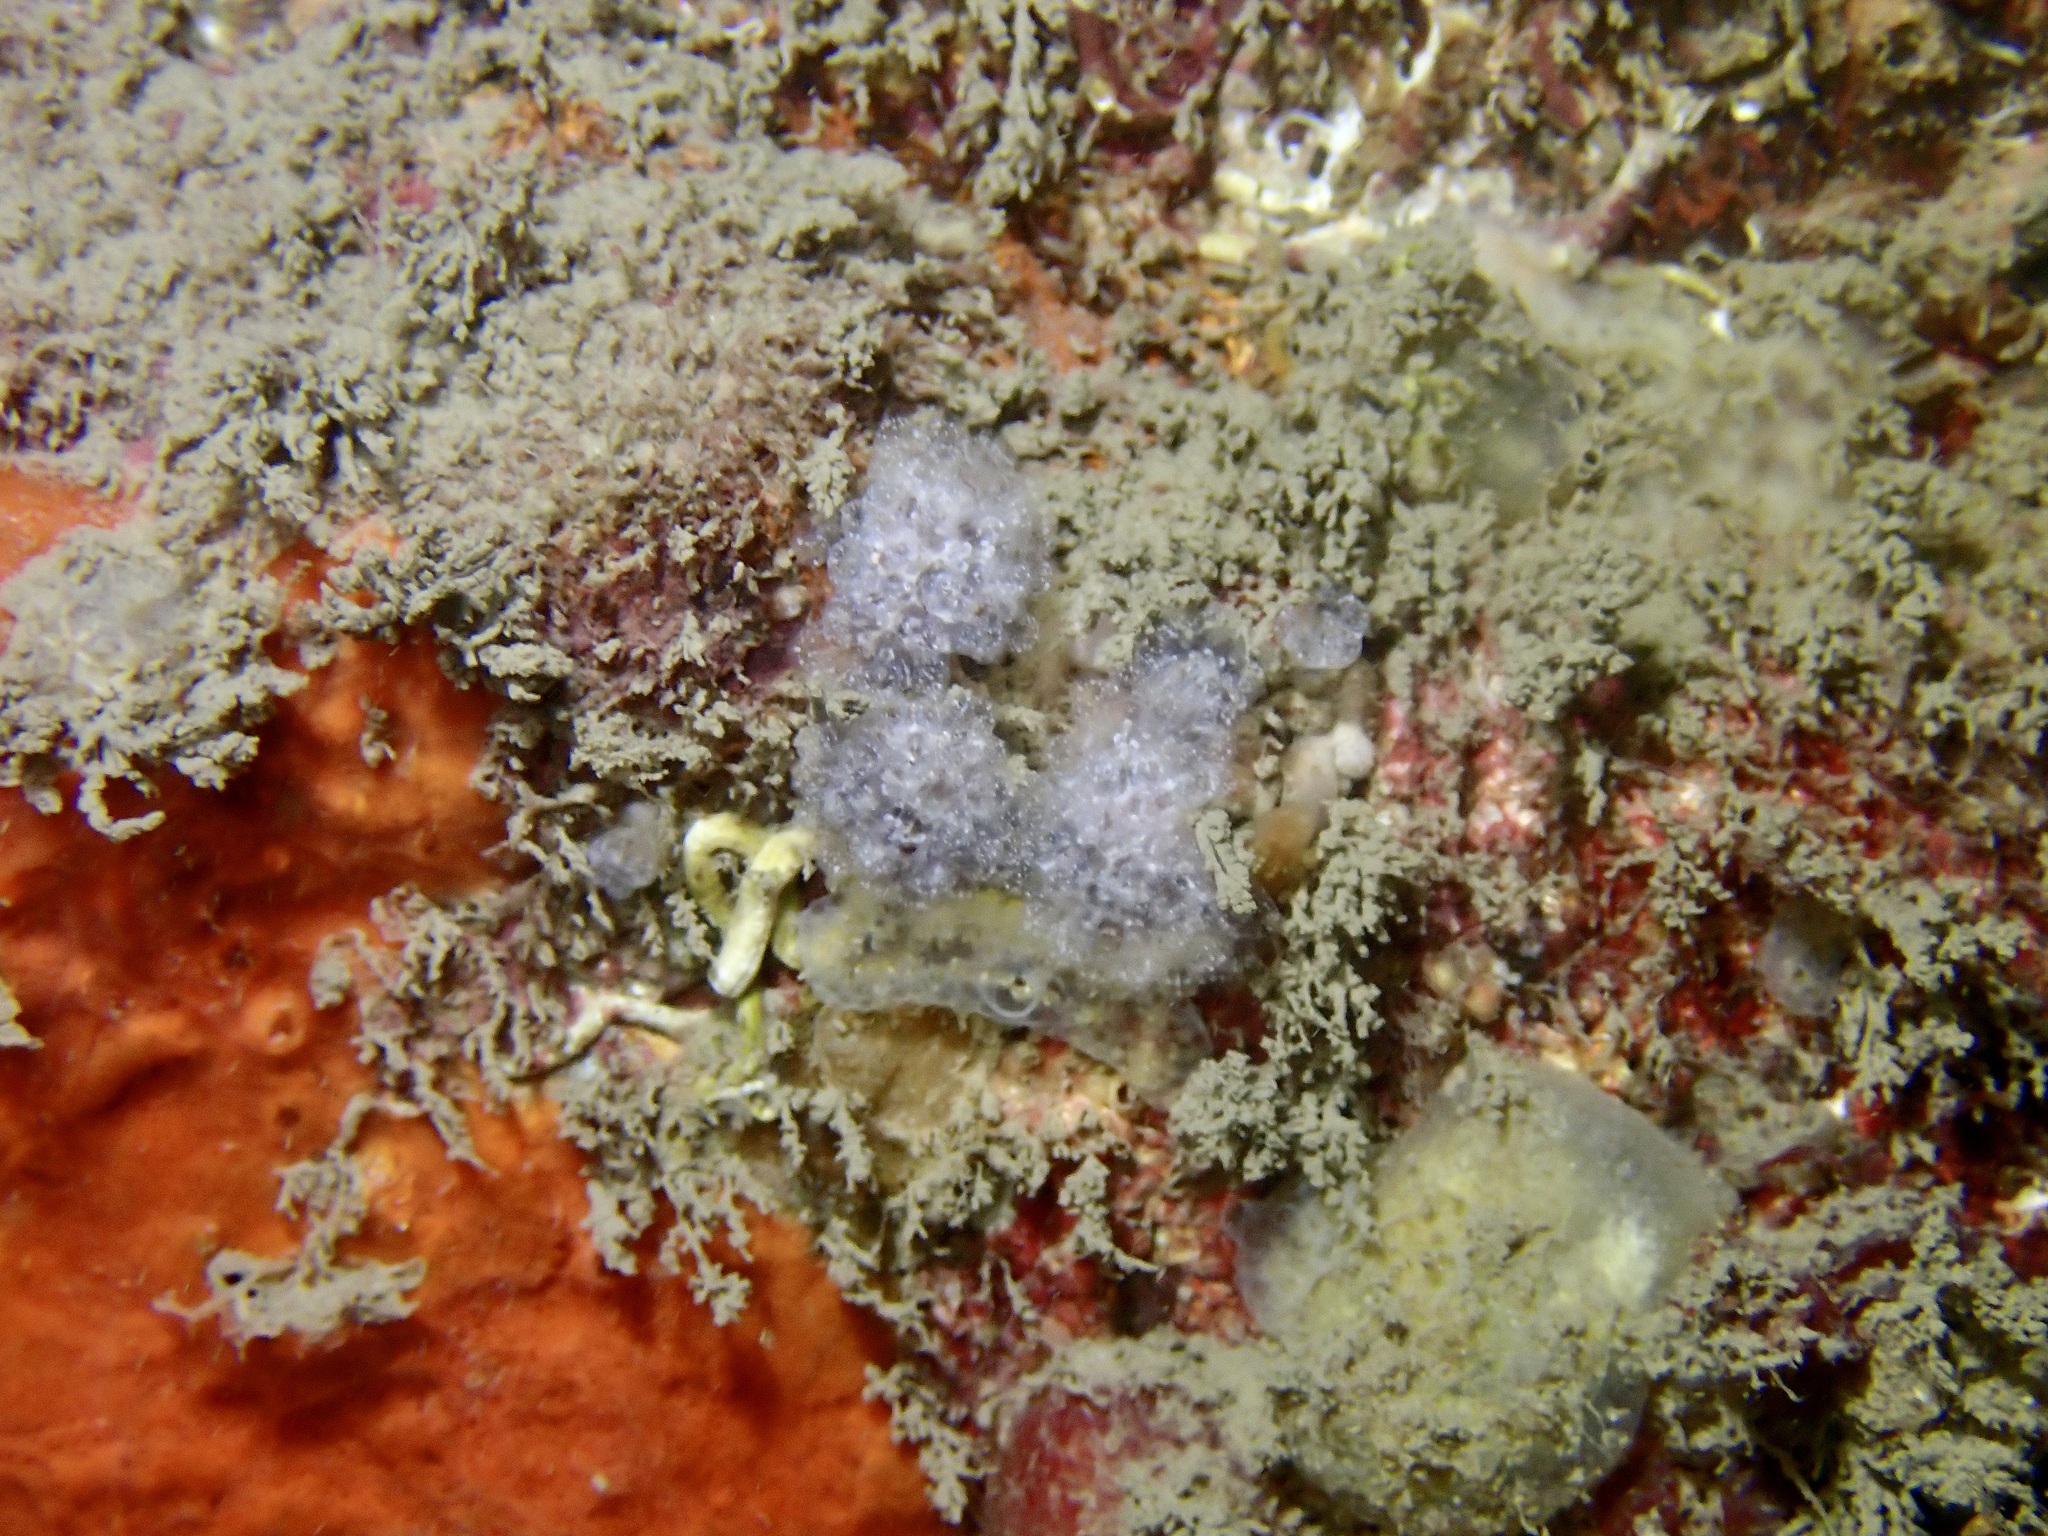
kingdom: Animalia
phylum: Chordata
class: Ascidiacea
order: Aplousobranchia
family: Holozoidae
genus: Distaplia
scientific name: Distaplia rosea
